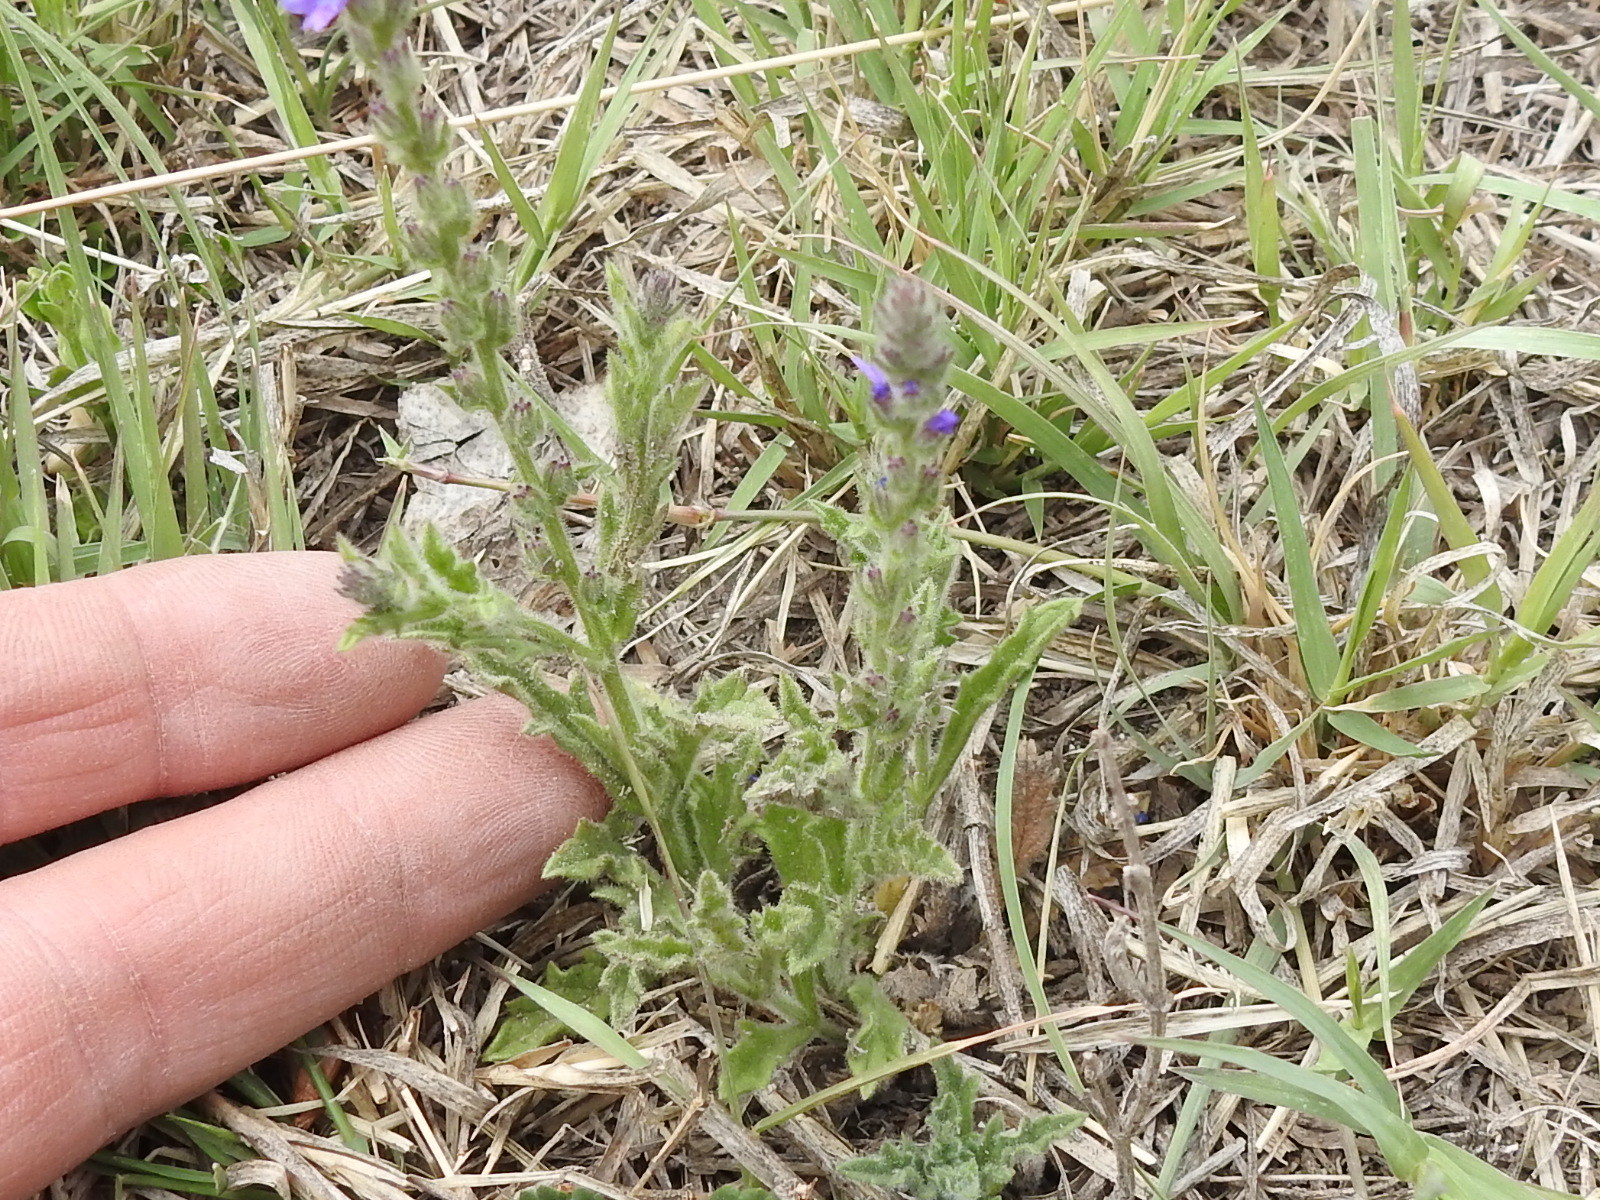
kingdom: Plantae
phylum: Tracheophyta
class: Magnoliopsida
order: Lamiales
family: Verbenaceae
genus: Verbena
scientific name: Verbena canescens
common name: Gray vervain
